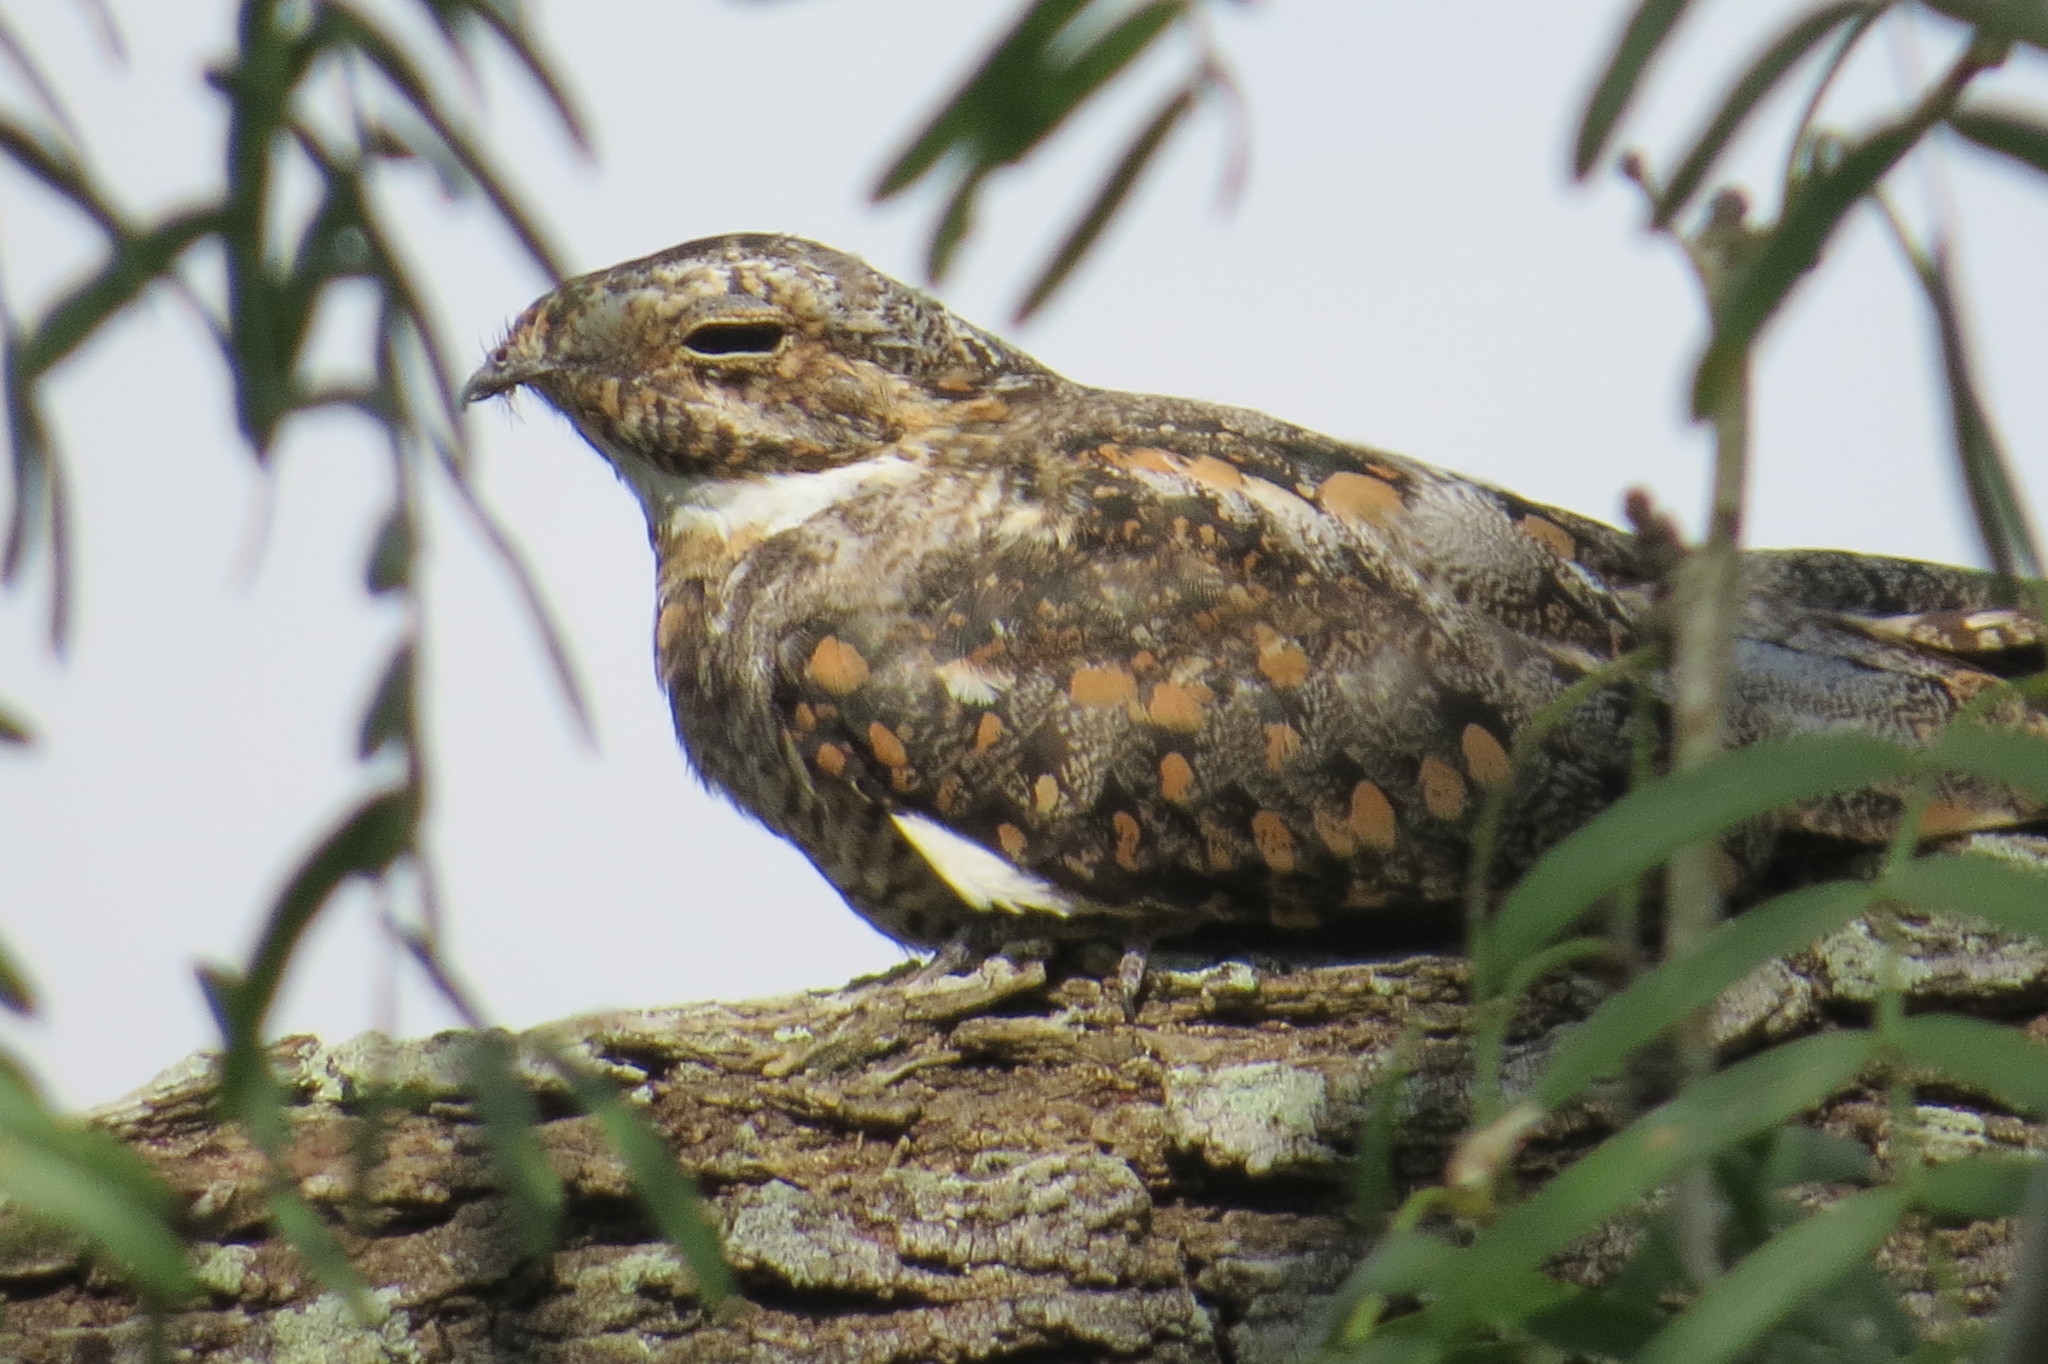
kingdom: Animalia
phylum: Chordata
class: Aves
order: Caprimulgiformes
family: Caprimulgidae
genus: Chordeiles
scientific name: Chordeiles minor
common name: Common nighthawk
